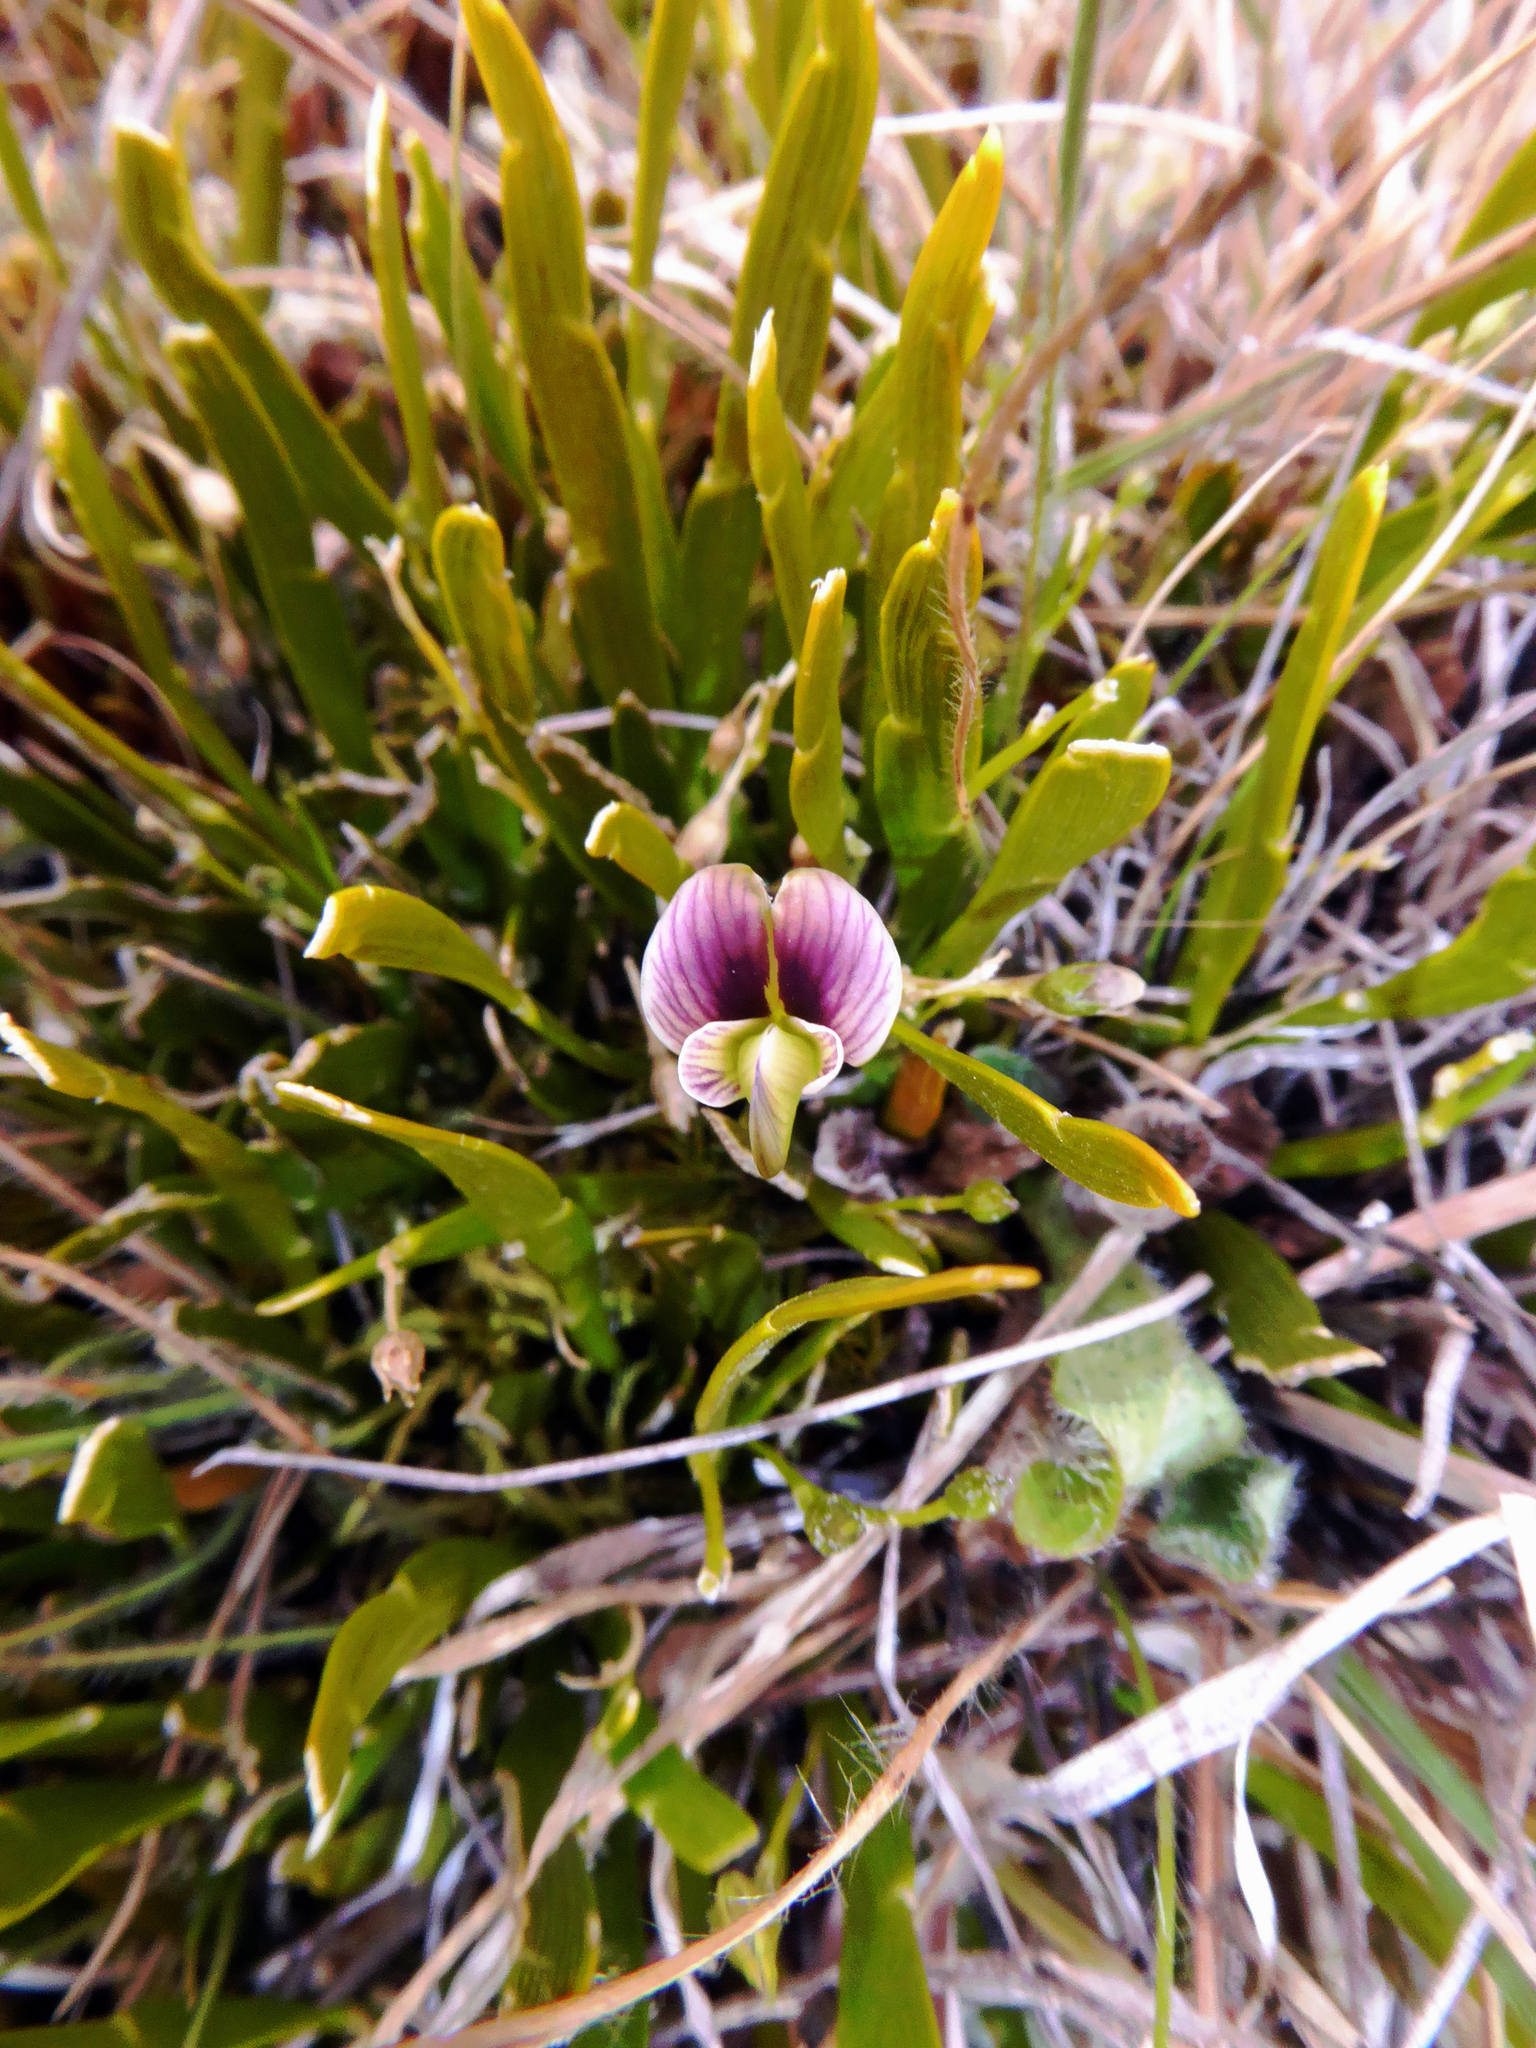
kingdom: Plantae
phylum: Tracheophyta
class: Magnoliopsida
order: Fabales
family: Fabaceae
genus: Carmichaelia
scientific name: Carmichaelia corrugata
